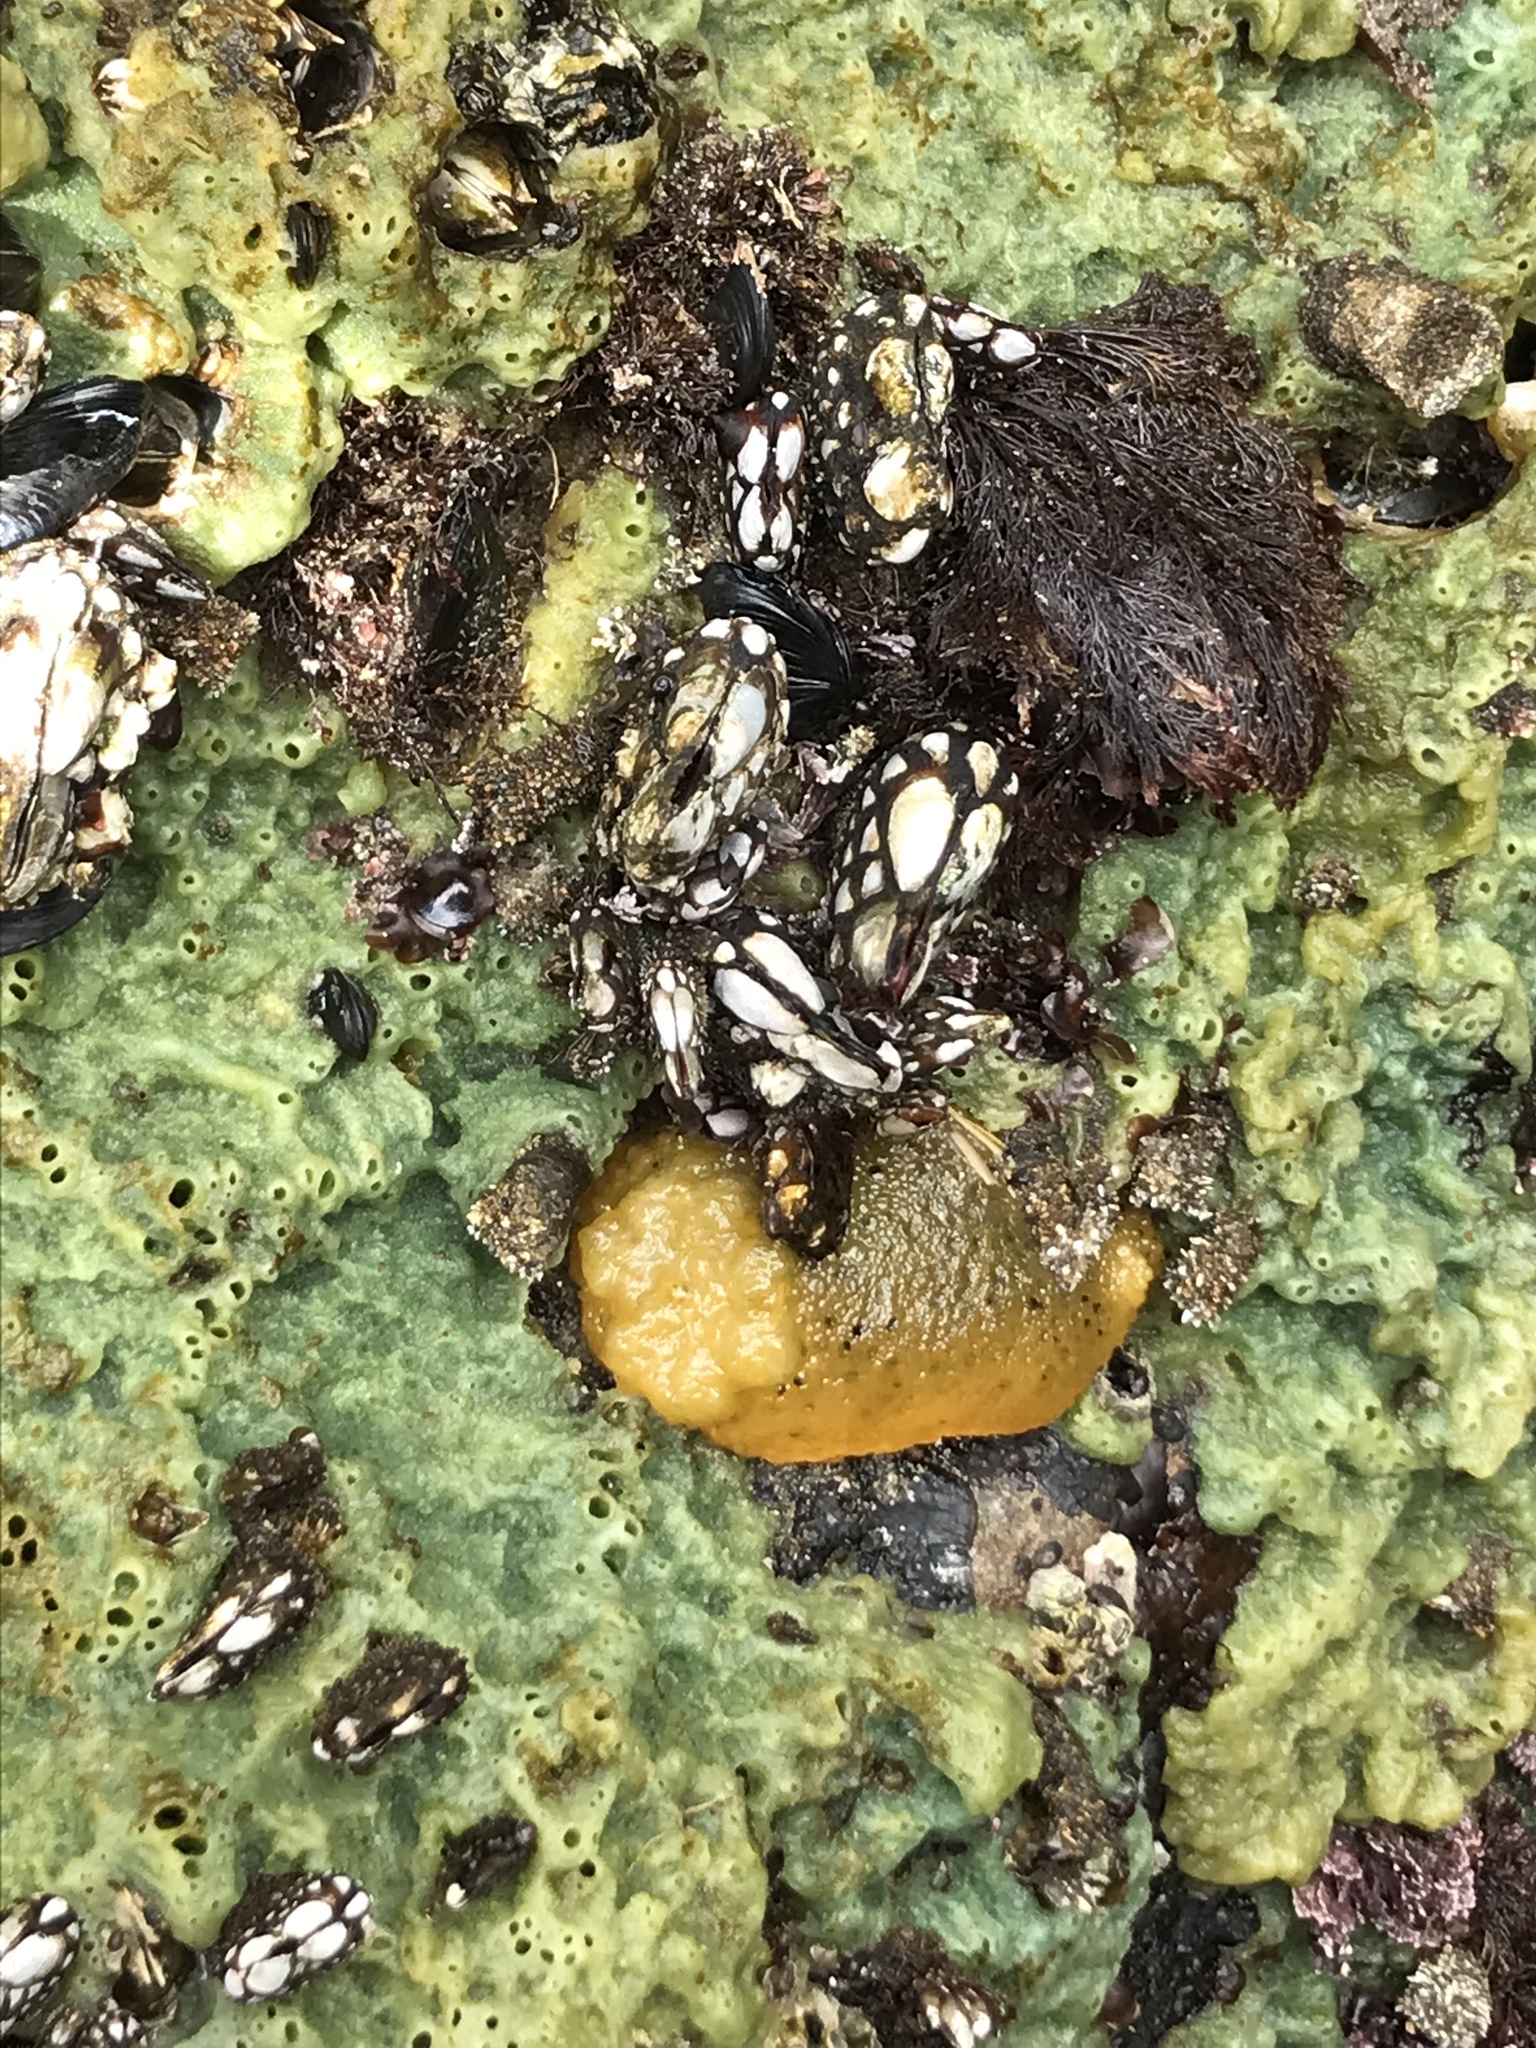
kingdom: Animalia
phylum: Mollusca
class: Gastropoda
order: Nudibranchia
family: Dorididae
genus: Doris
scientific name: Doris montereyensis
